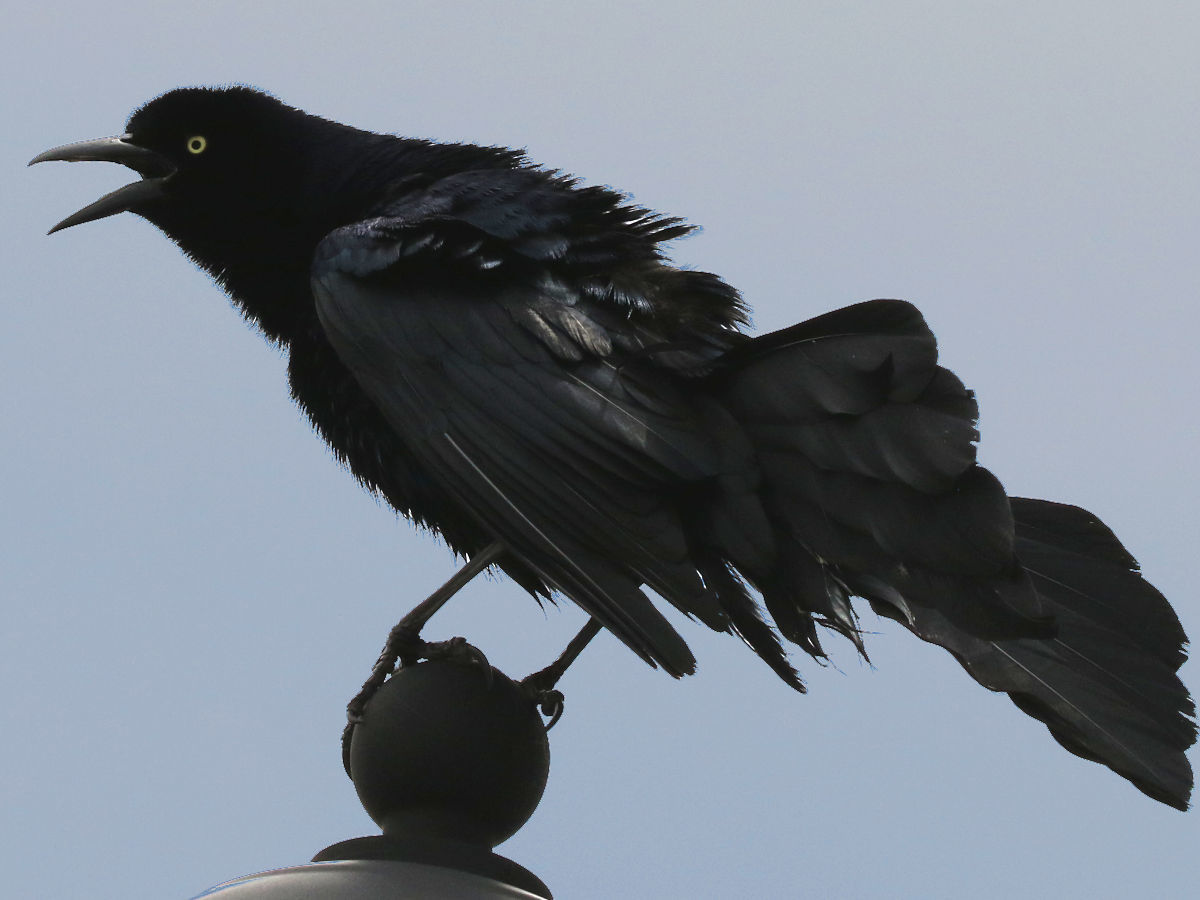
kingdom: Animalia
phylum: Chordata
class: Aves
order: Passeriformes
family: Icteridae
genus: Quiscalus
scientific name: Quiscalus mexicanus
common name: Great-tailed grackle
